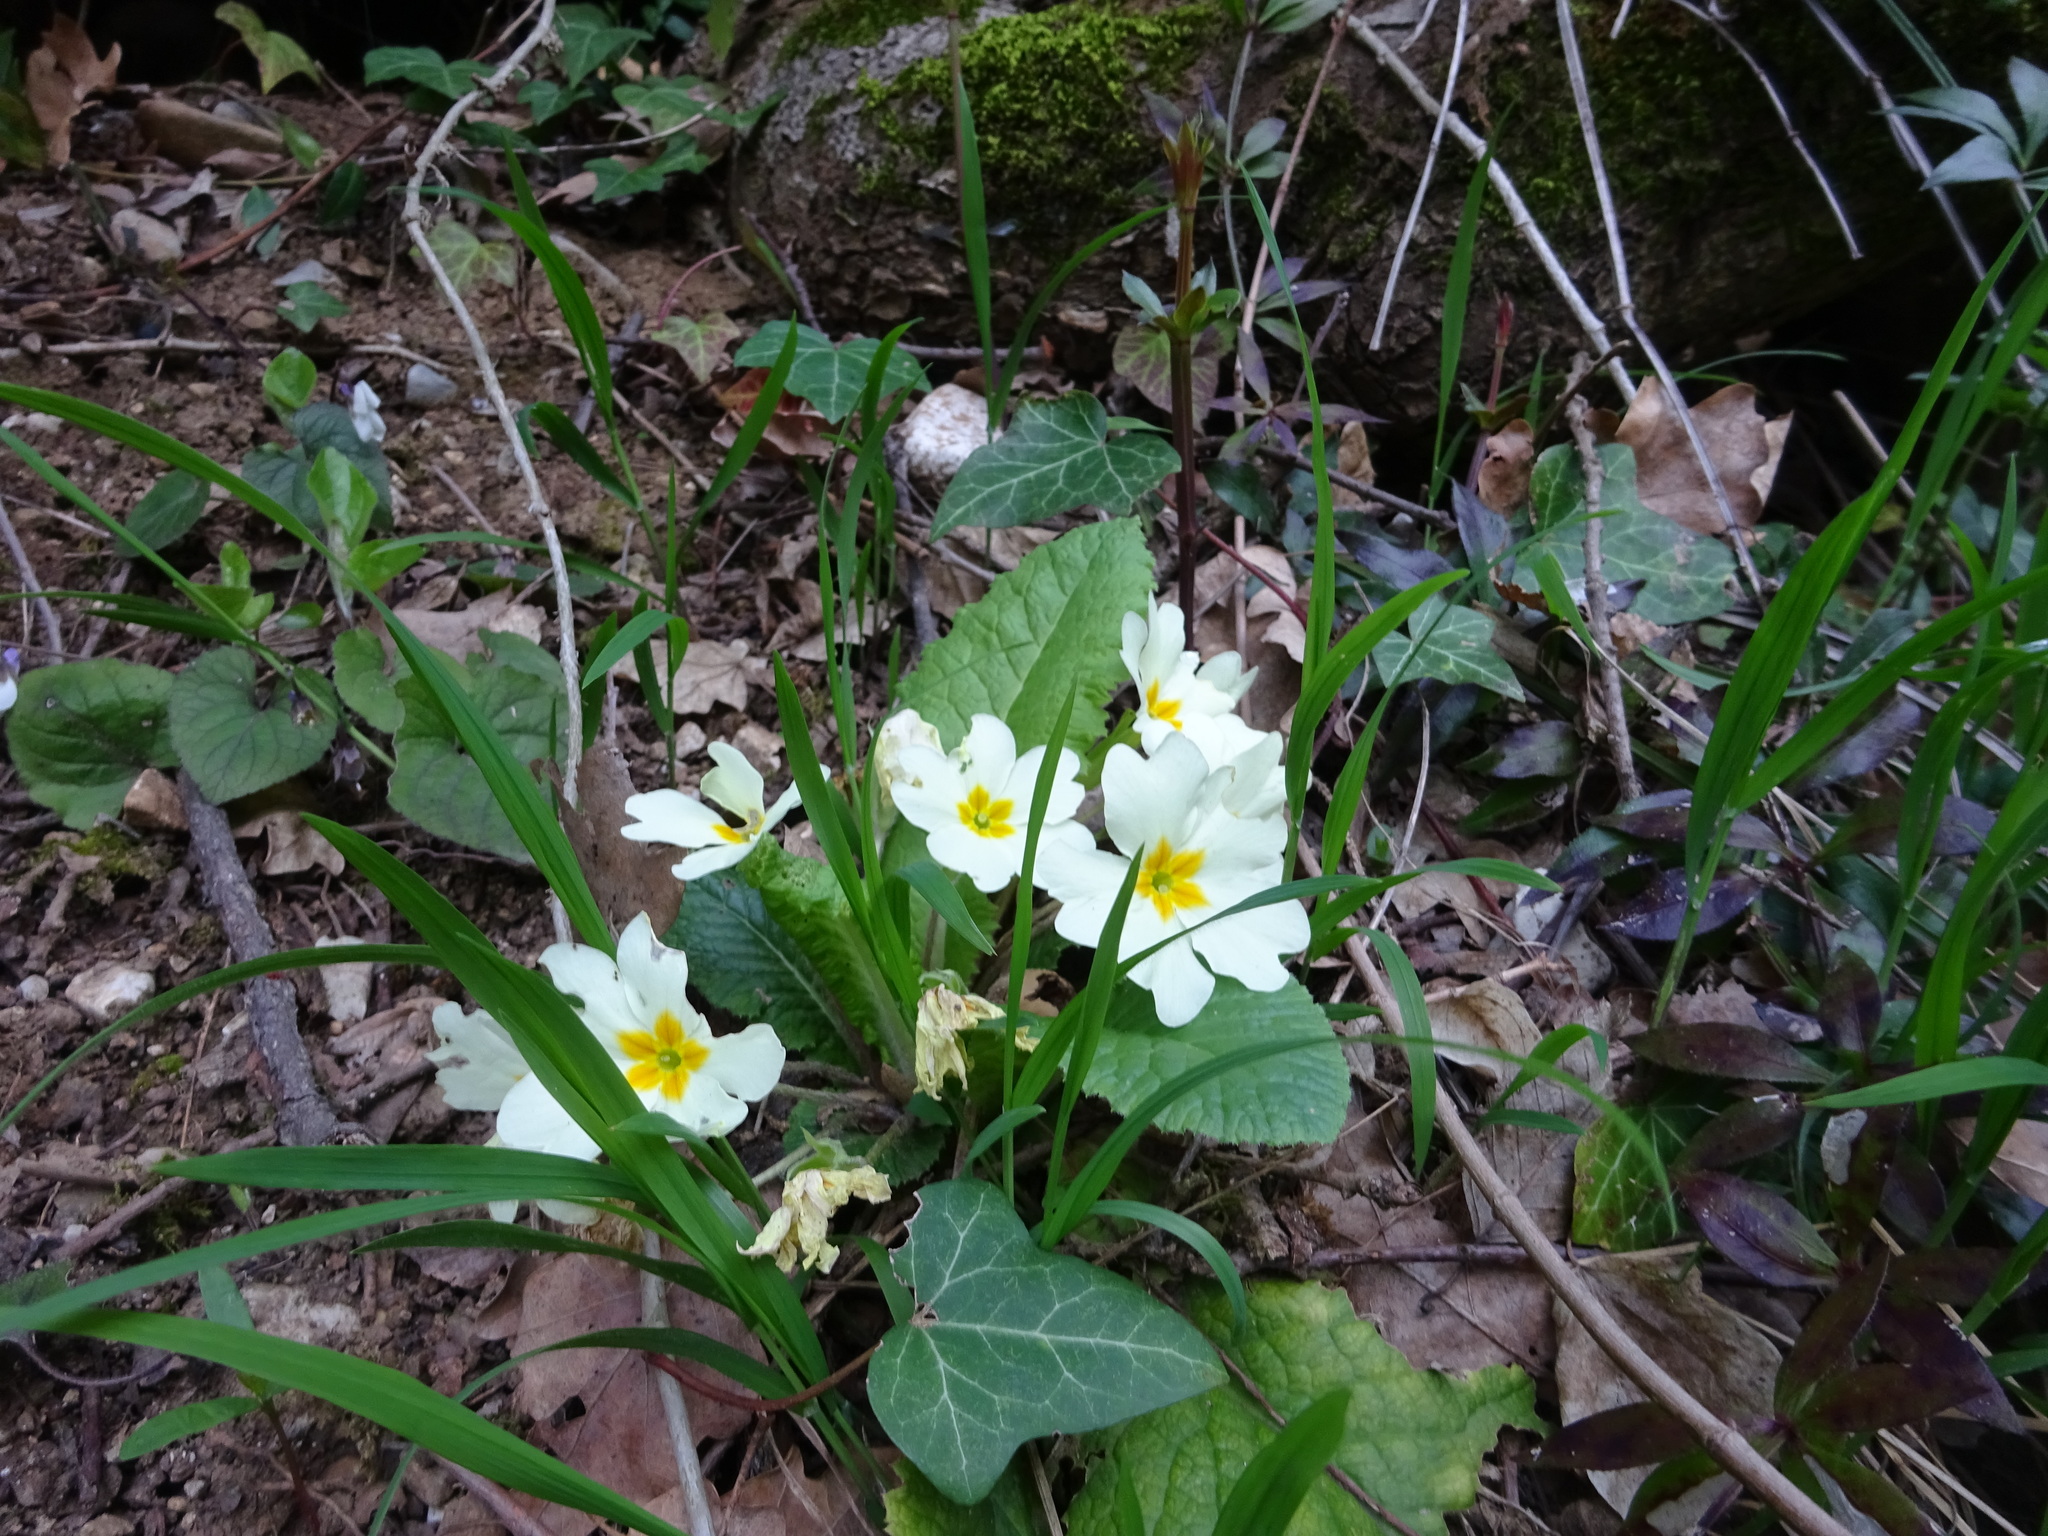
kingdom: Plantae
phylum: Tracheophyta
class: Magnoliopsida
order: Ericales
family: Primulaceae
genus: Primula
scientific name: Primula vulgaris
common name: Primrose
